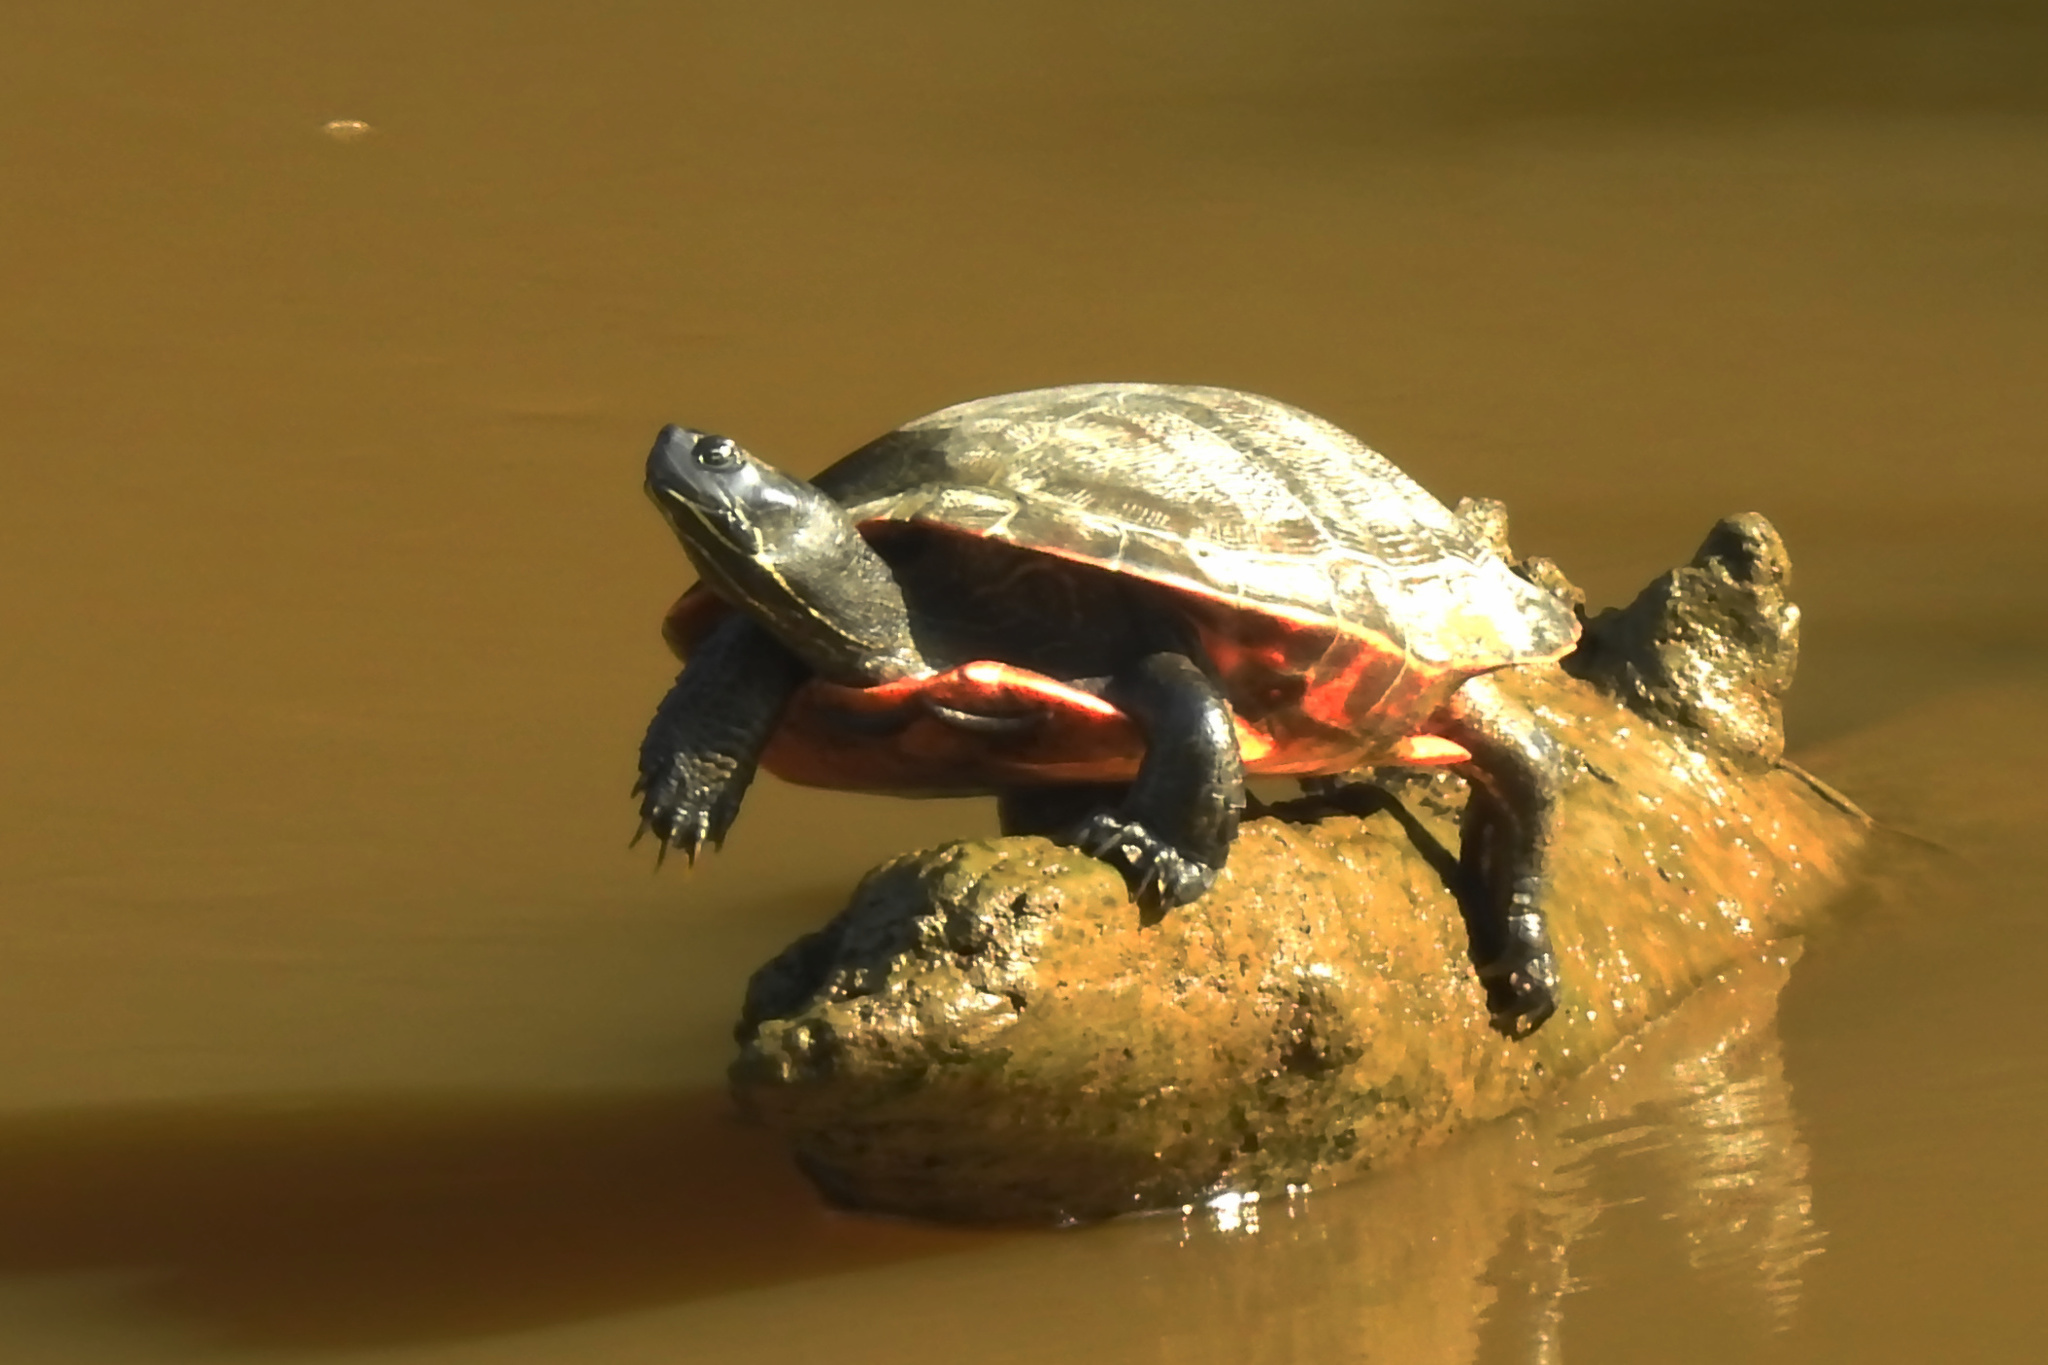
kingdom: Animalia
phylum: Chordata
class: Testudines
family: Emydidae
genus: Pseudemys
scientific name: Pseudemys rubriventris
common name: American red-bellied turtle
